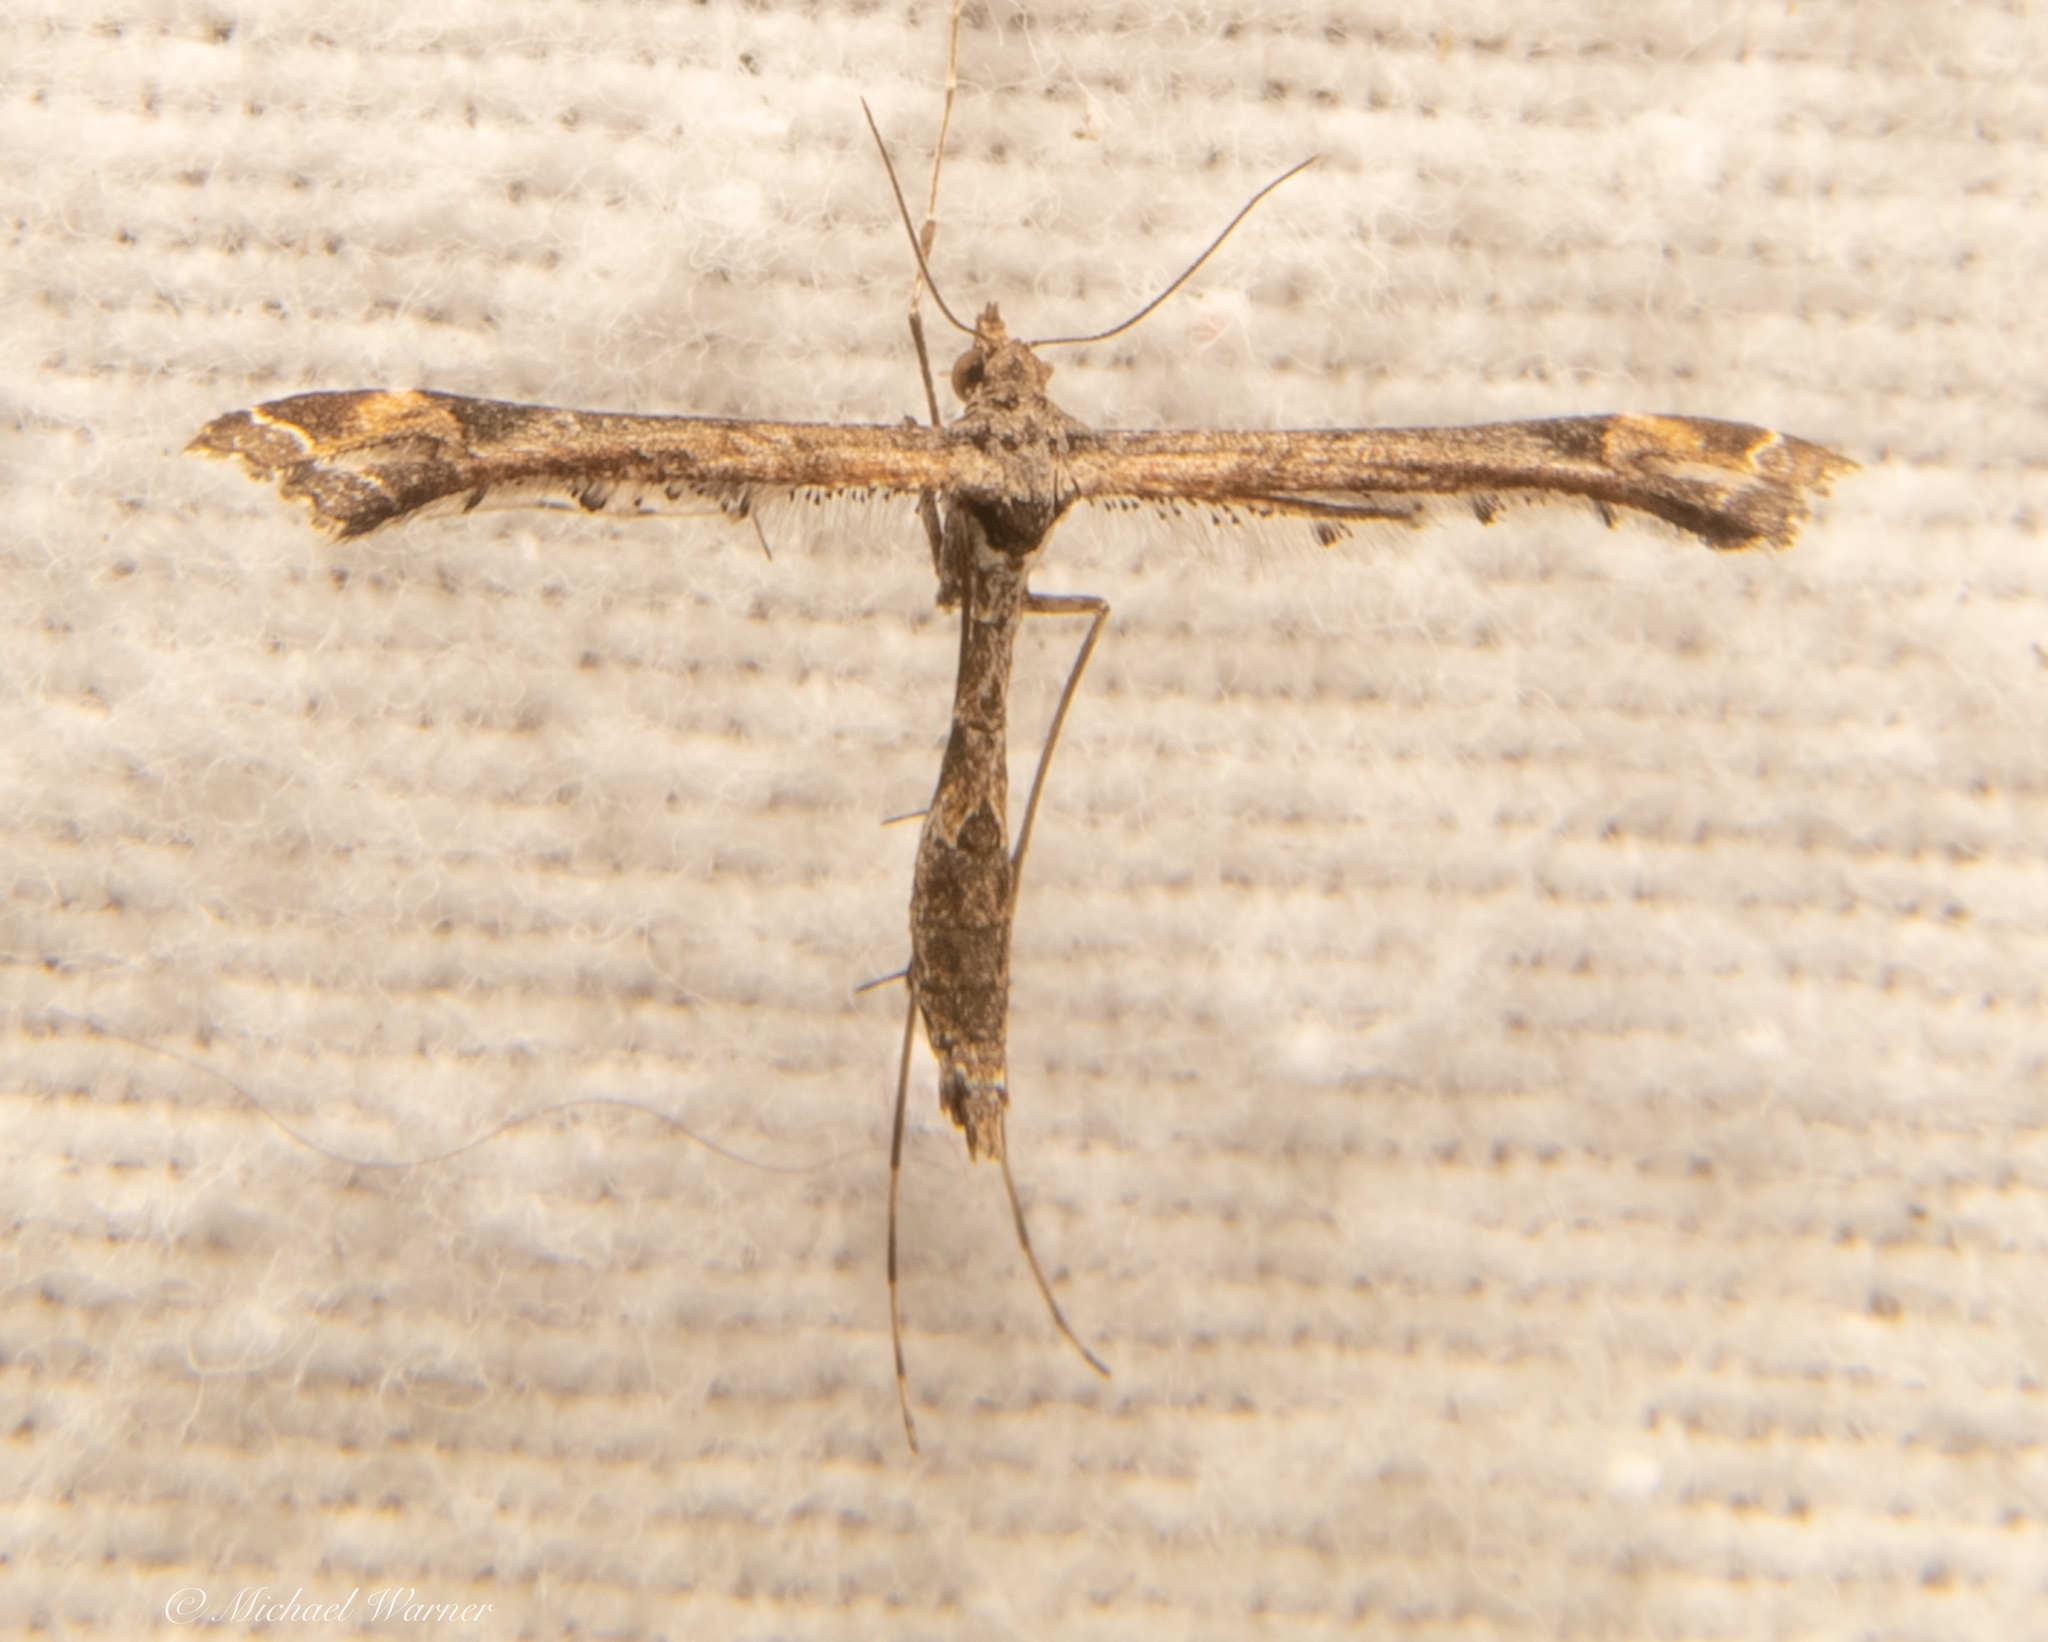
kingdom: Animalia
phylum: Arthropoda
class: Insecta
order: Lepidoptera
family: Pterophoridae
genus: Anstenoptilia
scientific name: Anstenoptilia marmarodactyla
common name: Moth
